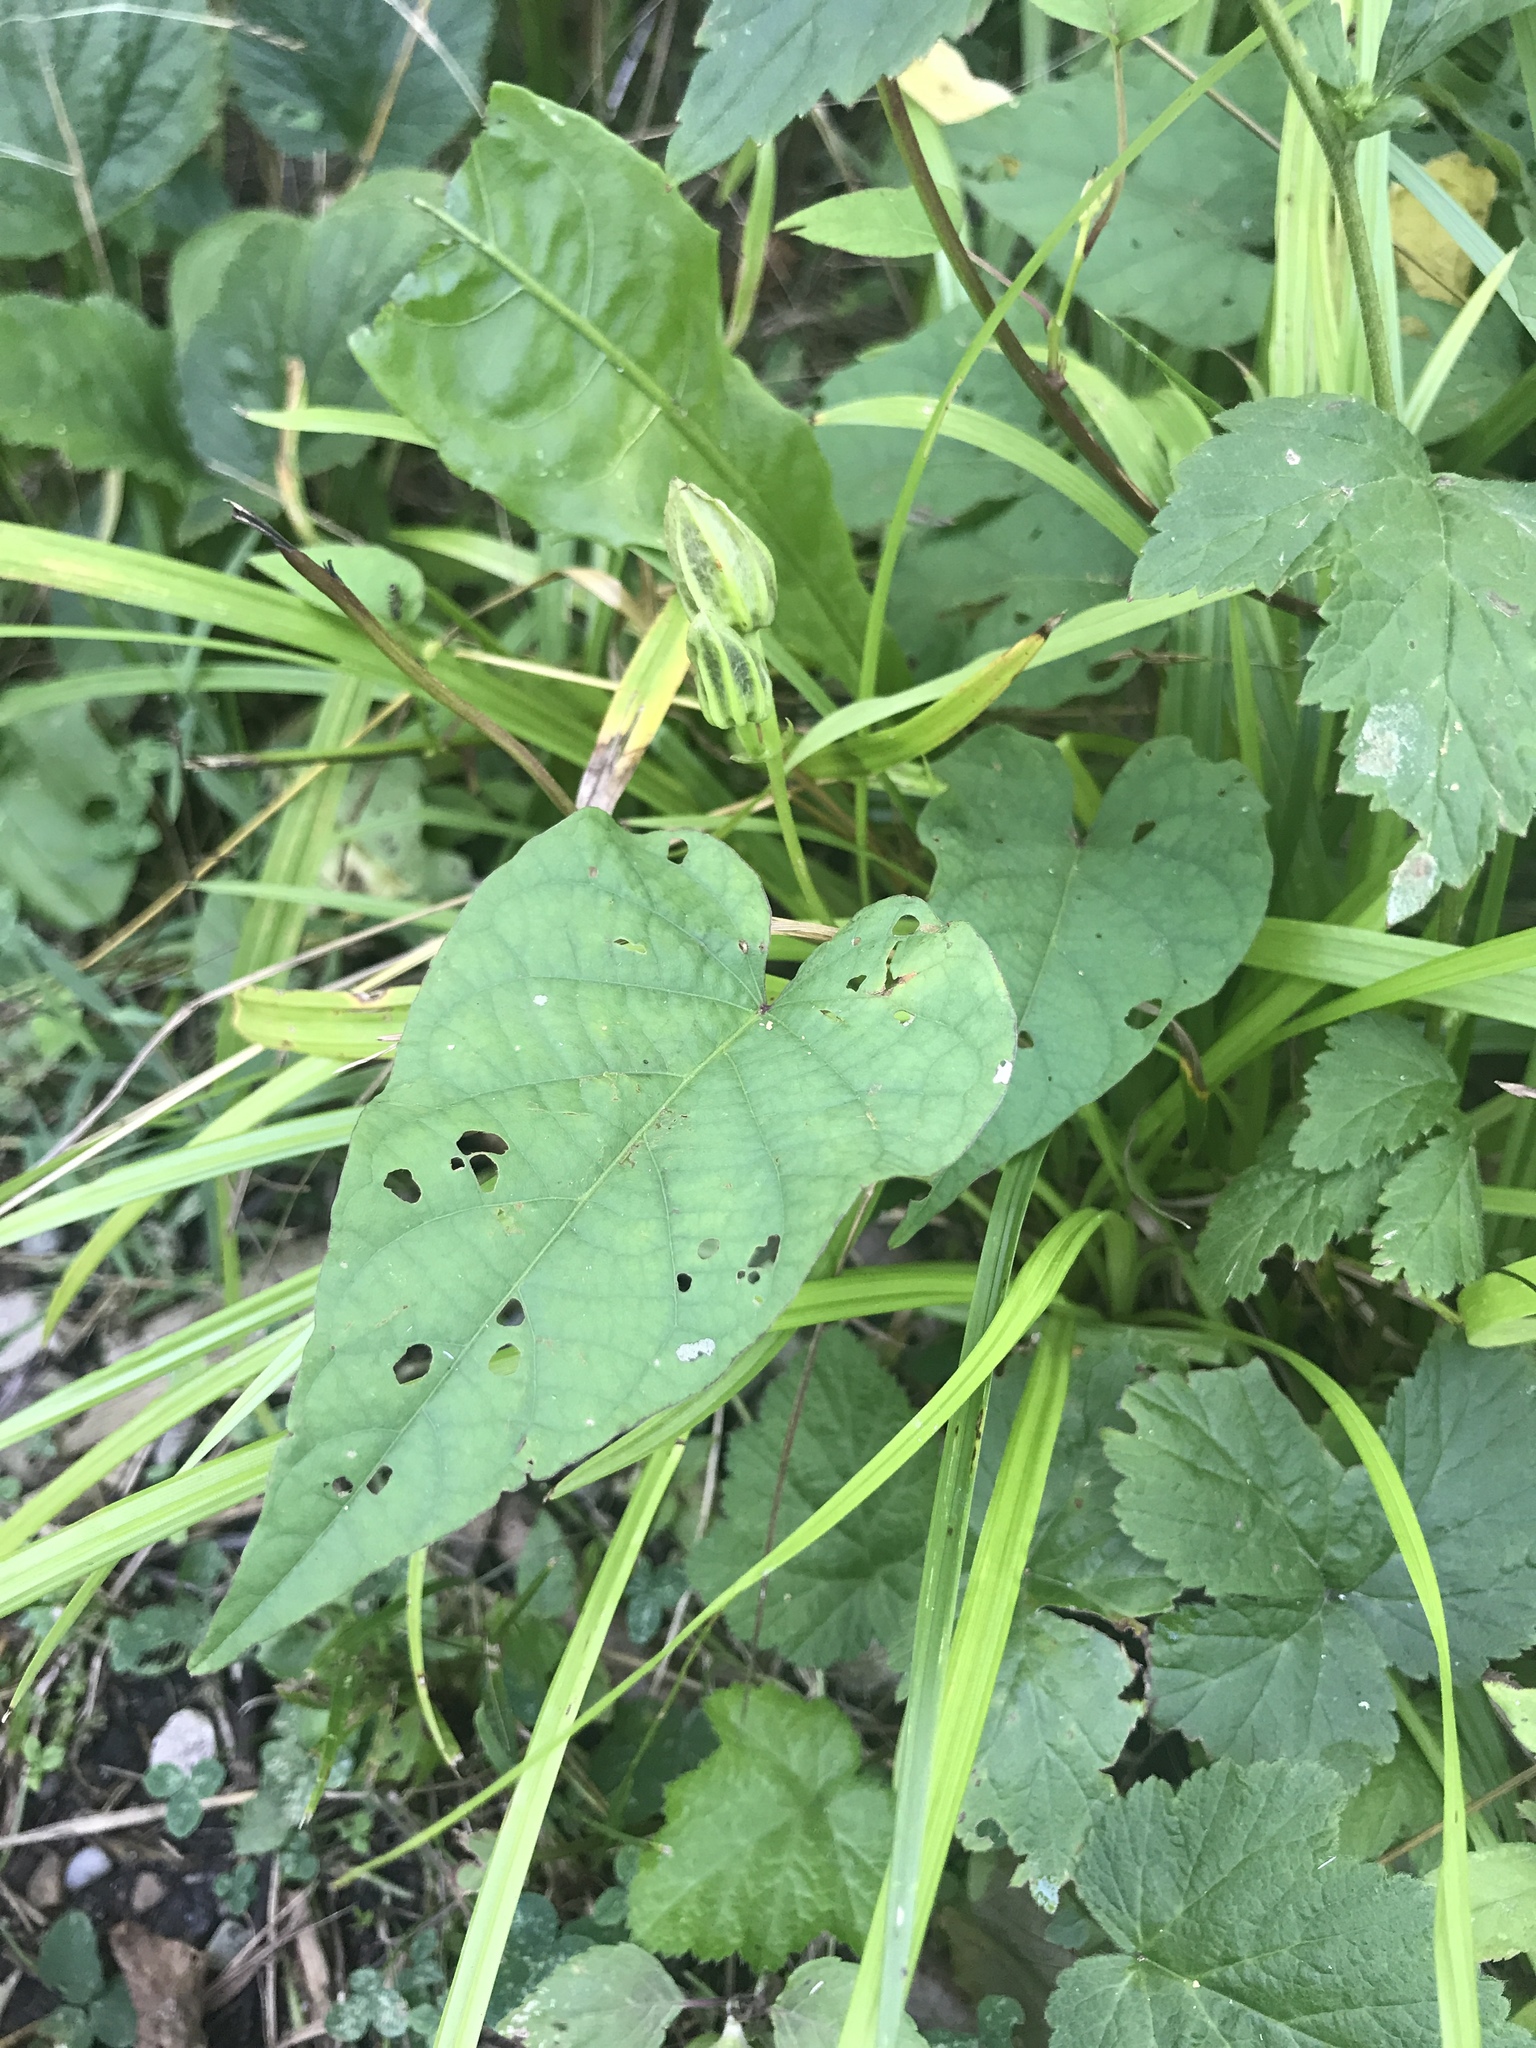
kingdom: Plantae
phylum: Tracheophyta
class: Magnoliopsida
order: Solanales
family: Convolvulaceae
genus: Ipomoea
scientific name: Ipomoea pandurata
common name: Man-of-the-earth
